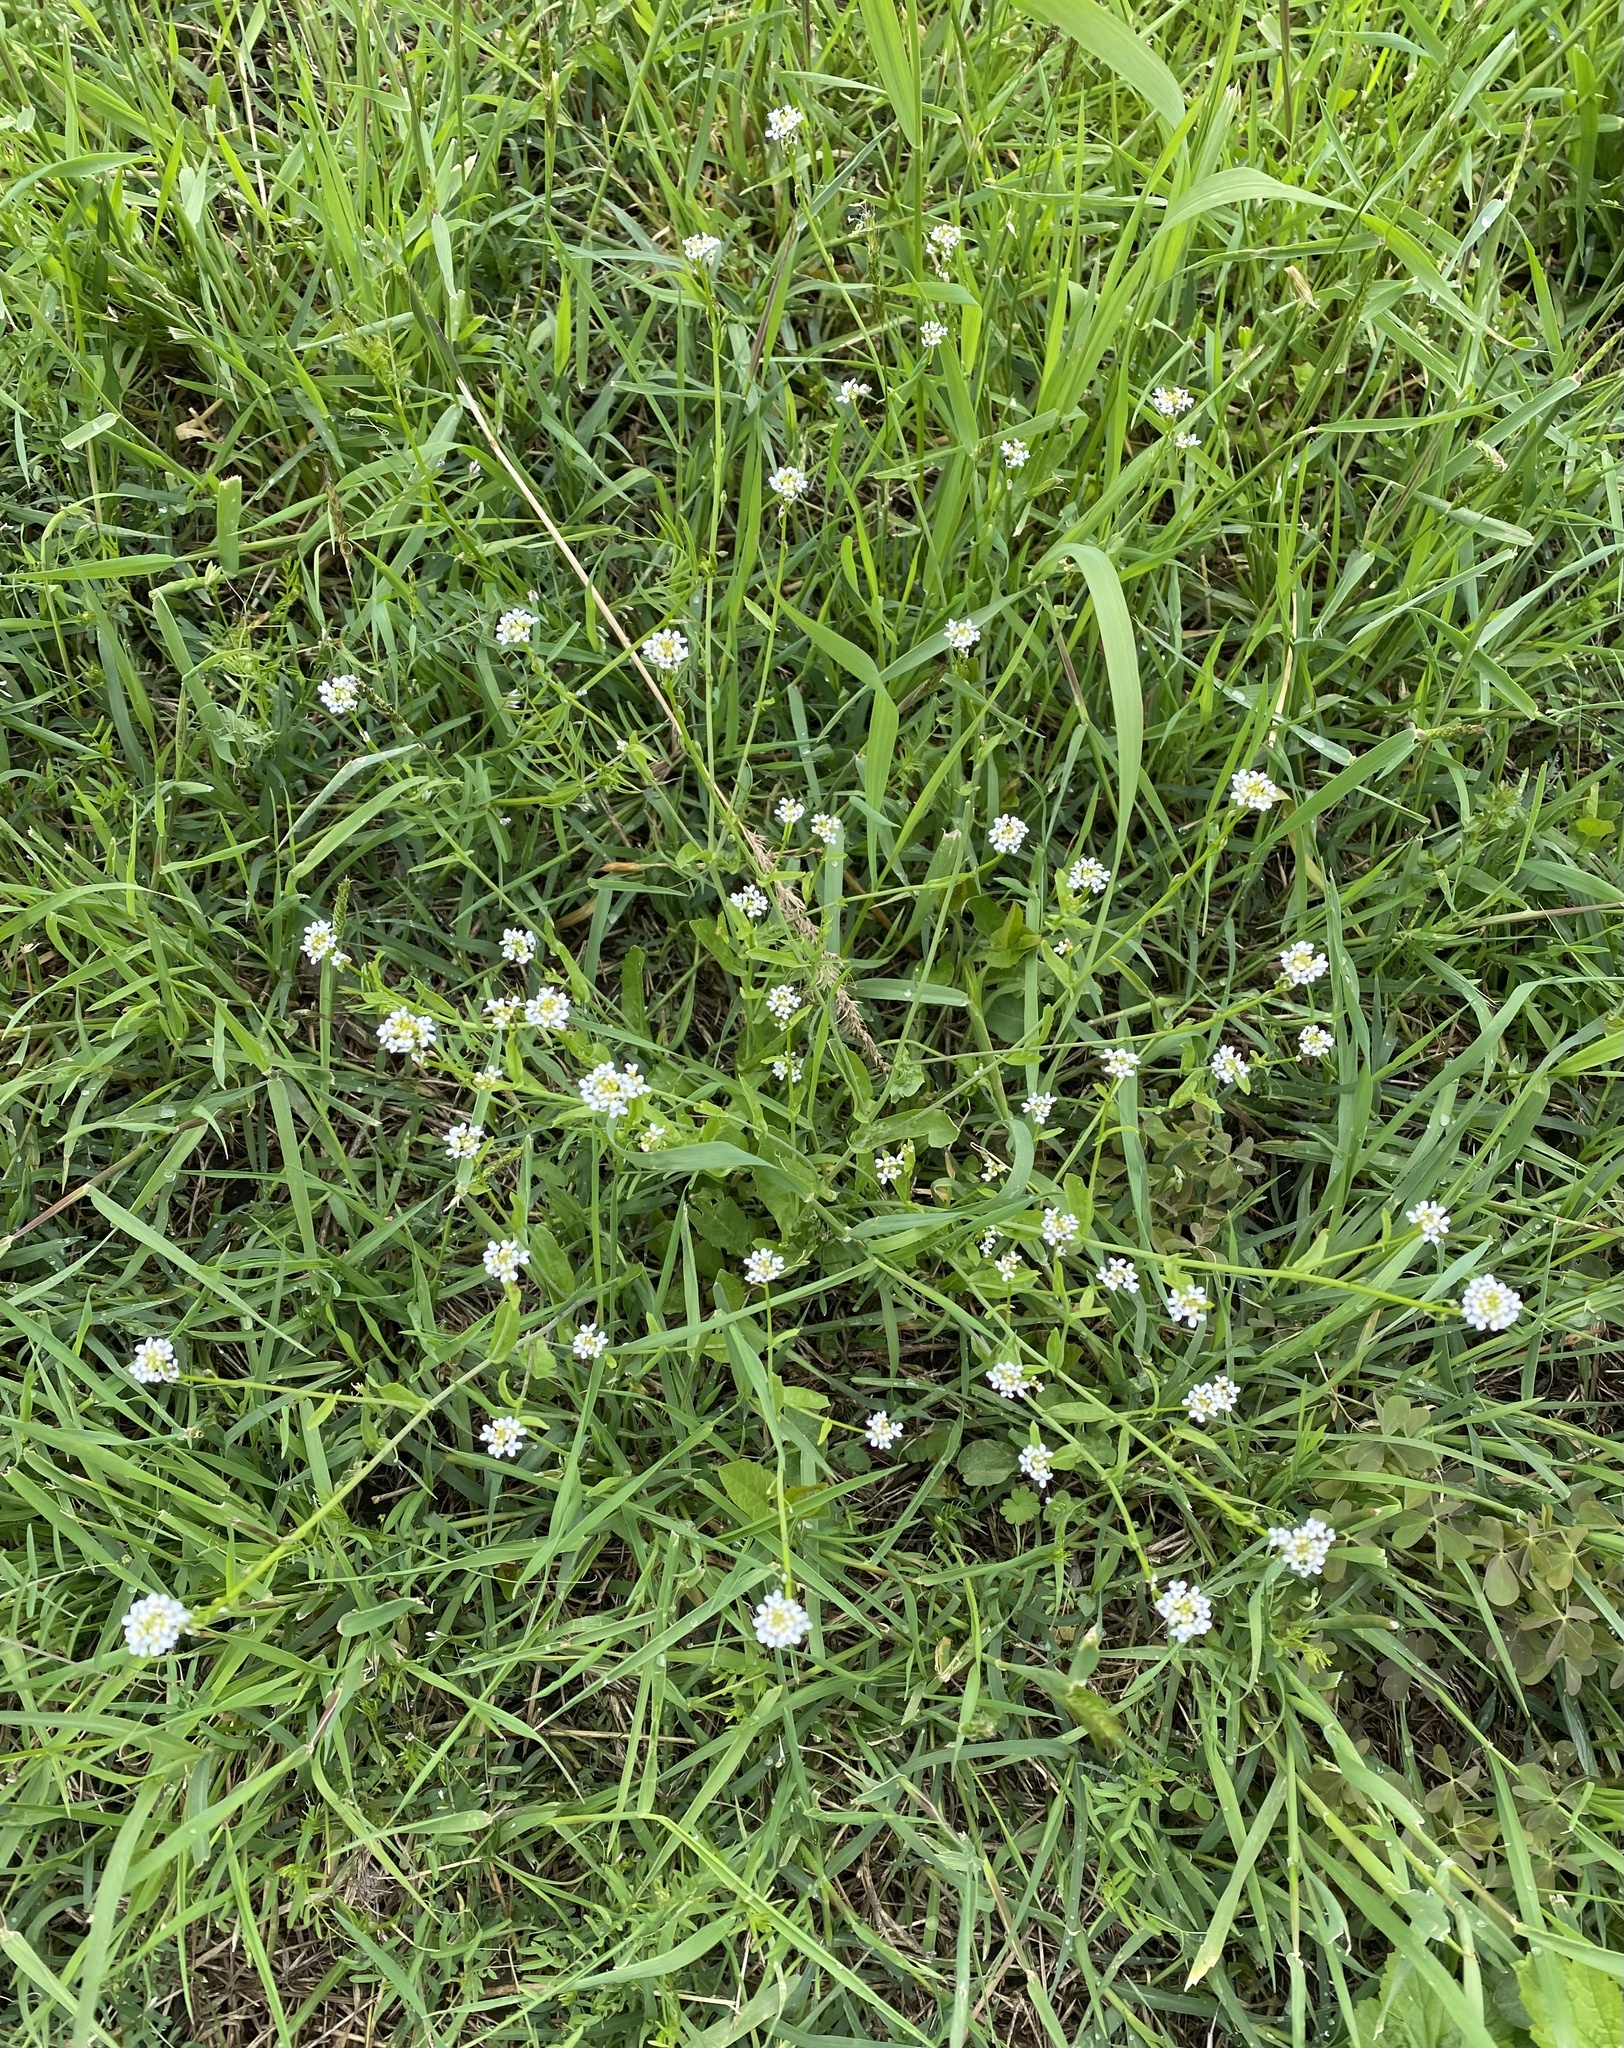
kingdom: Plantae
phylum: Tracheophyta
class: Magnoliopsida
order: Brassicales
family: Brassicaceae
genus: Calepina
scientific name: Calepina irregularis
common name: White ballmustard
